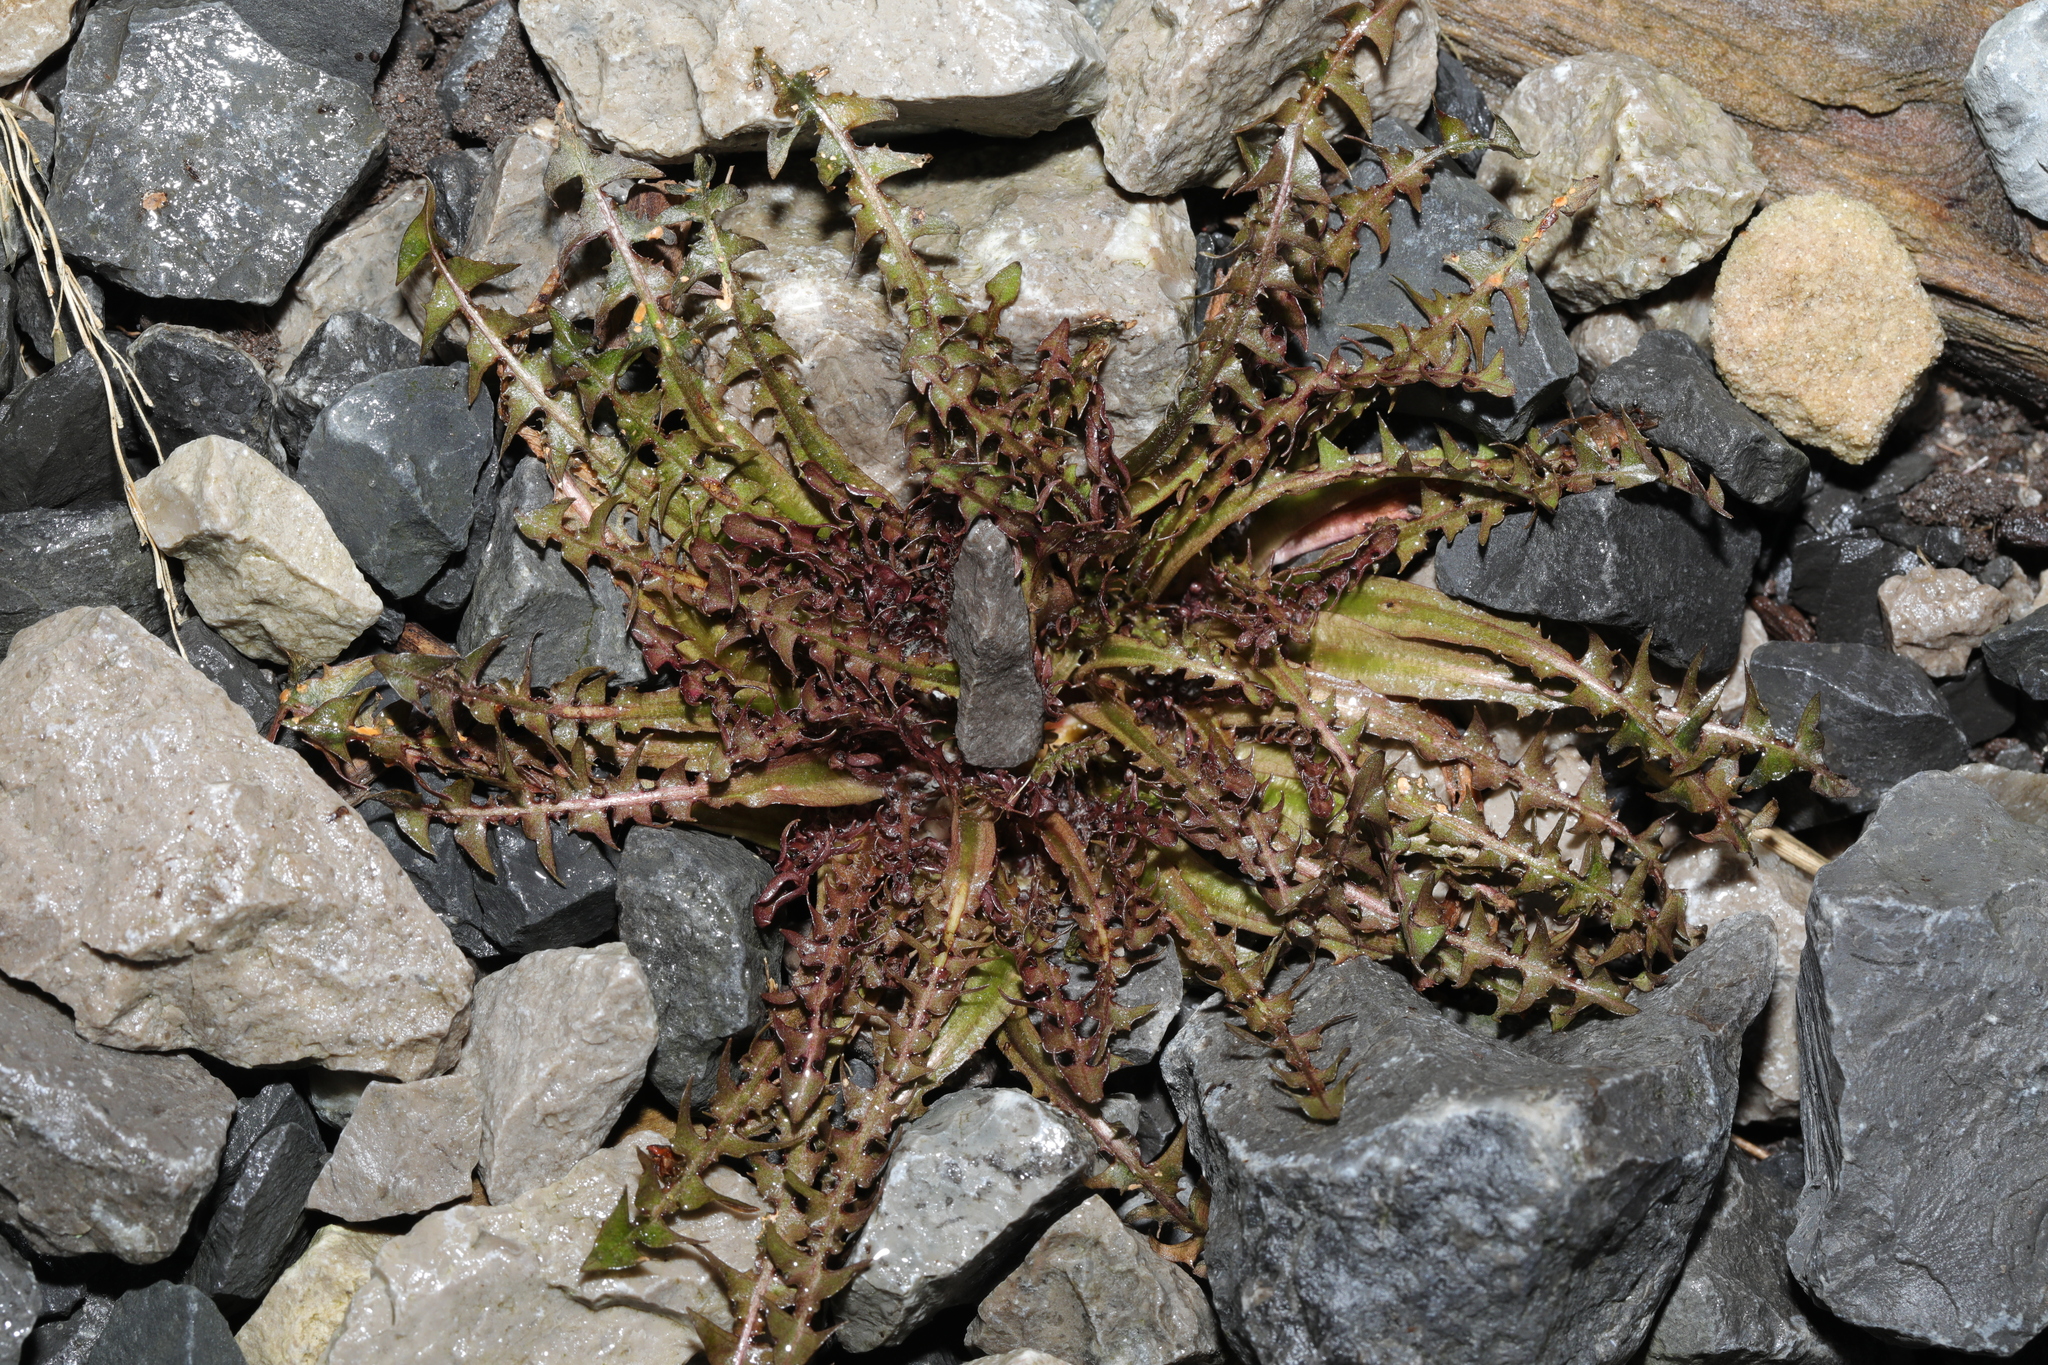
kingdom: Plantae
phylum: Tracheophyta
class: Magnoliopsida
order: Asterales
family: Asteraceae
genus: Taraxacum
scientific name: Taraxacum officinale
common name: Common dandelion
